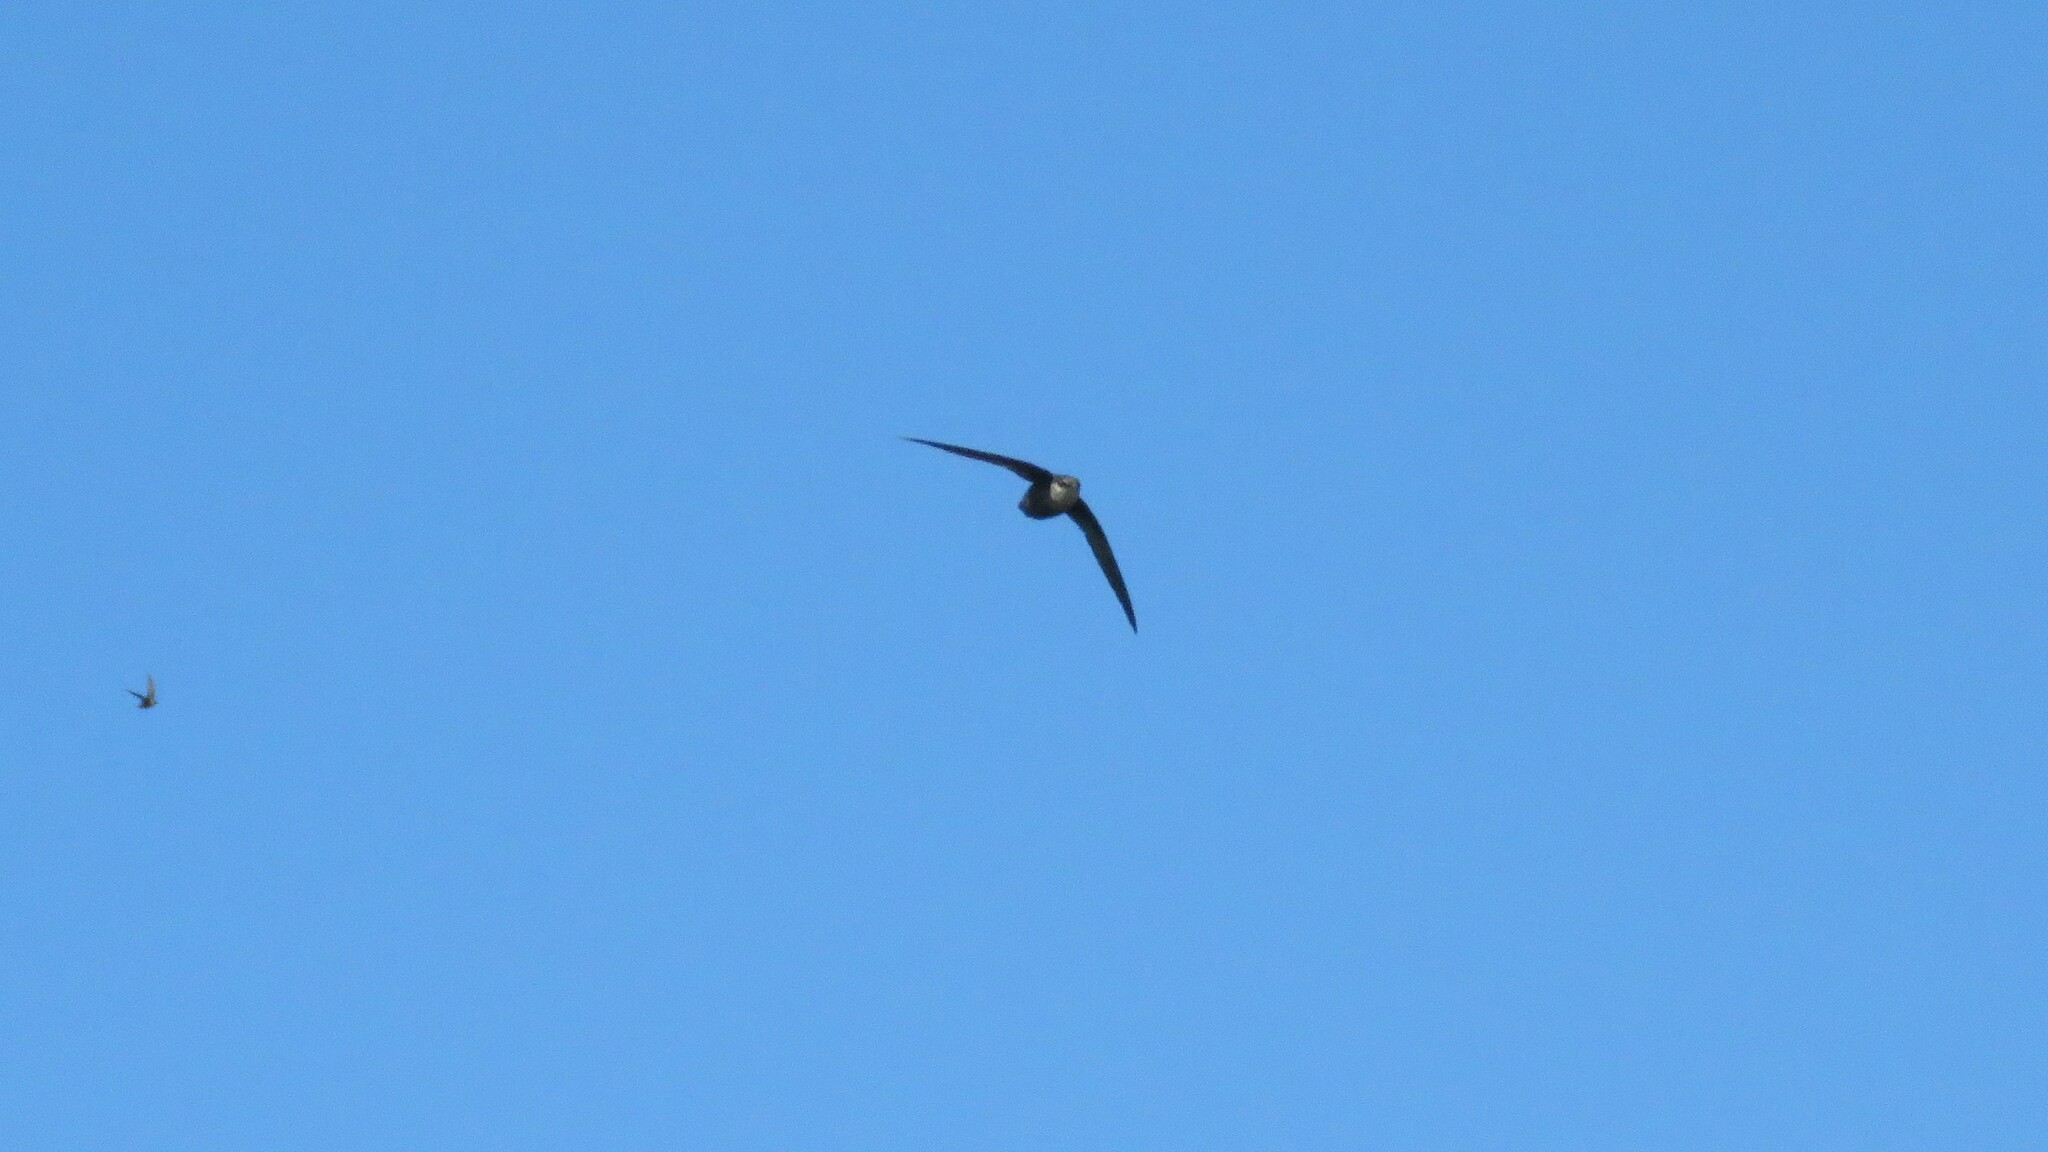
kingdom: Animalia
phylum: Chordata
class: Aves
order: Apodiformes
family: Apodidae
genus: Chaetura
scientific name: Chaetura pelagica
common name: Chimney swift
